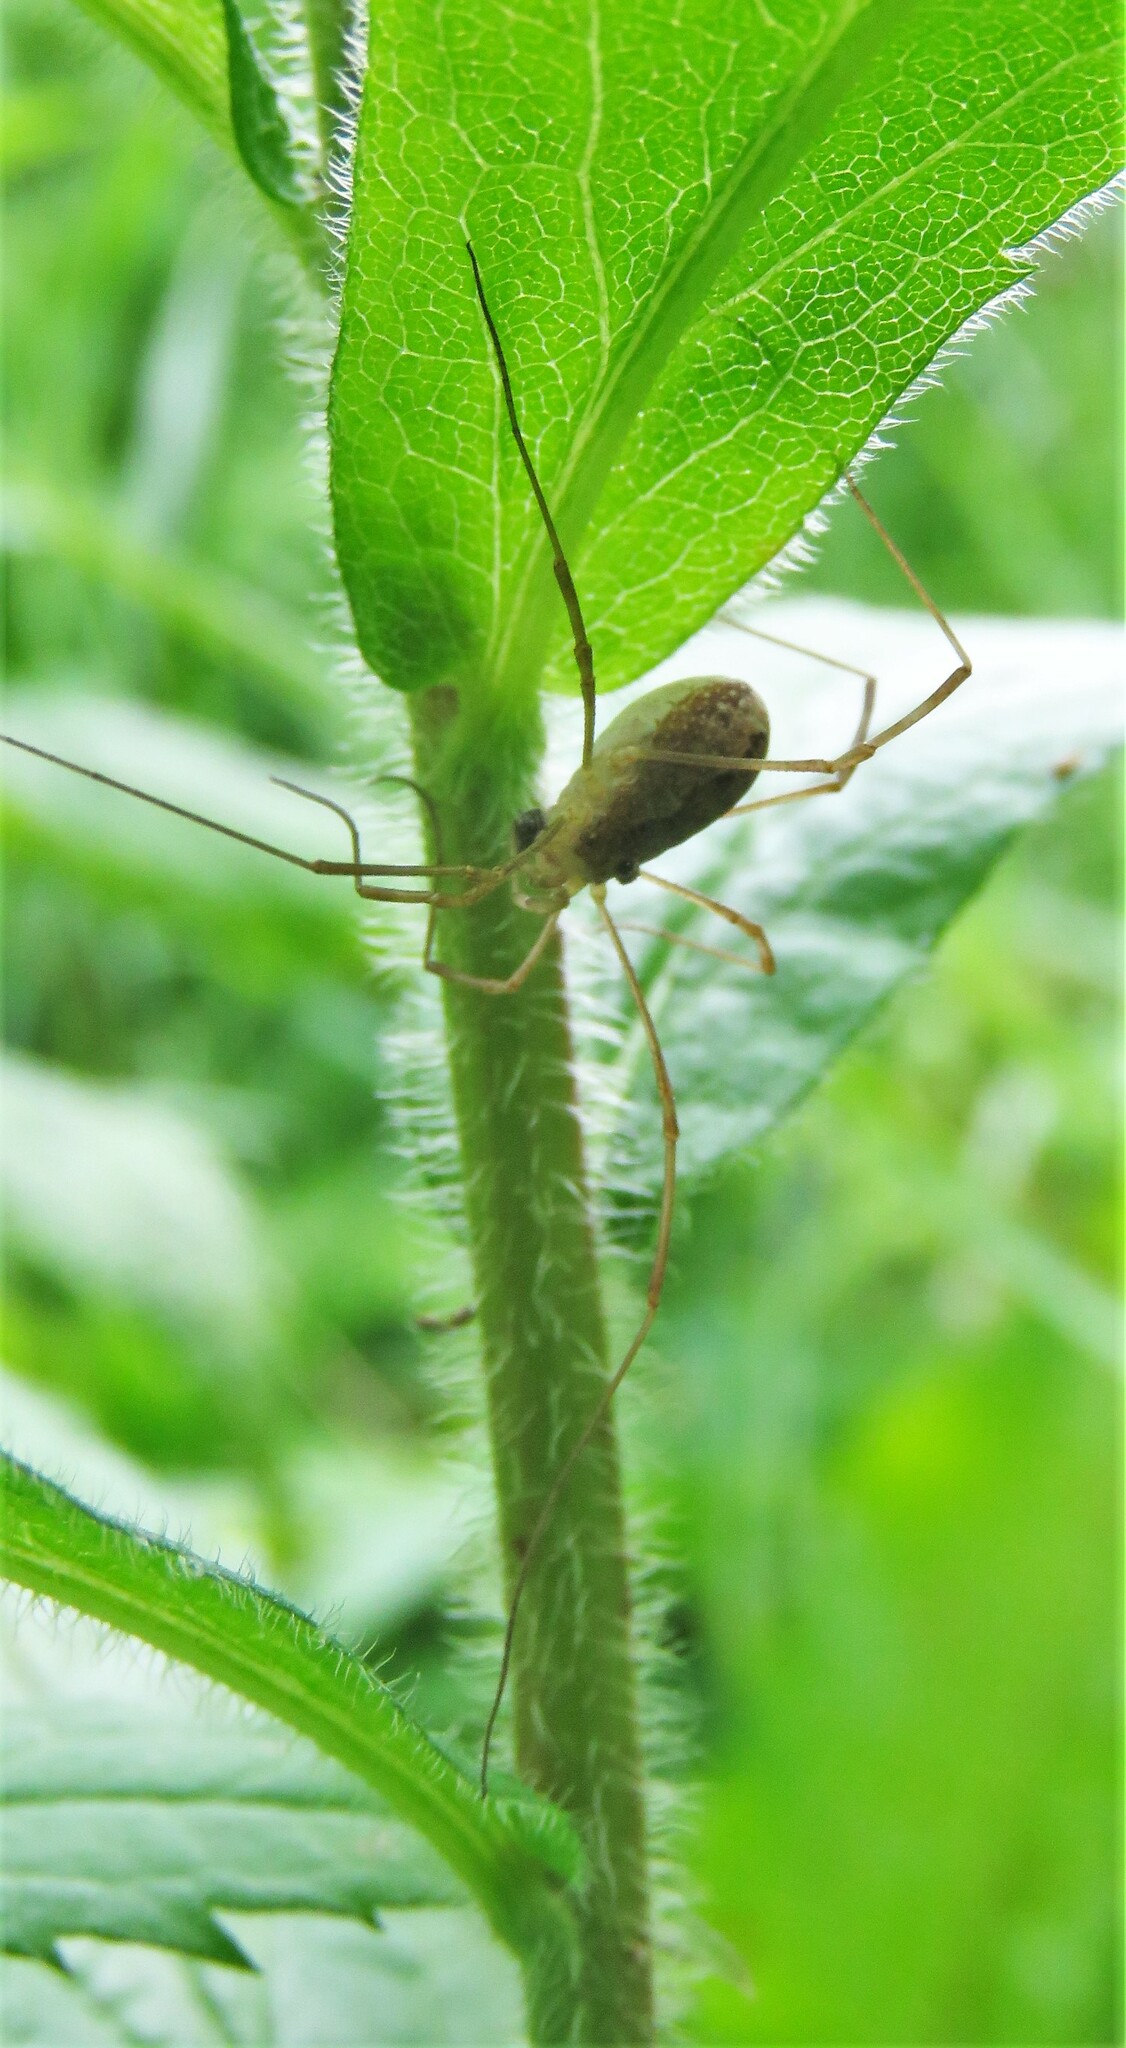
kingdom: Animalia
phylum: Arthropoda
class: Arachnida
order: Opiliones
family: Phalangiidae
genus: Rilaena
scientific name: Rilaena triangularis
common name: Spring harvestman
